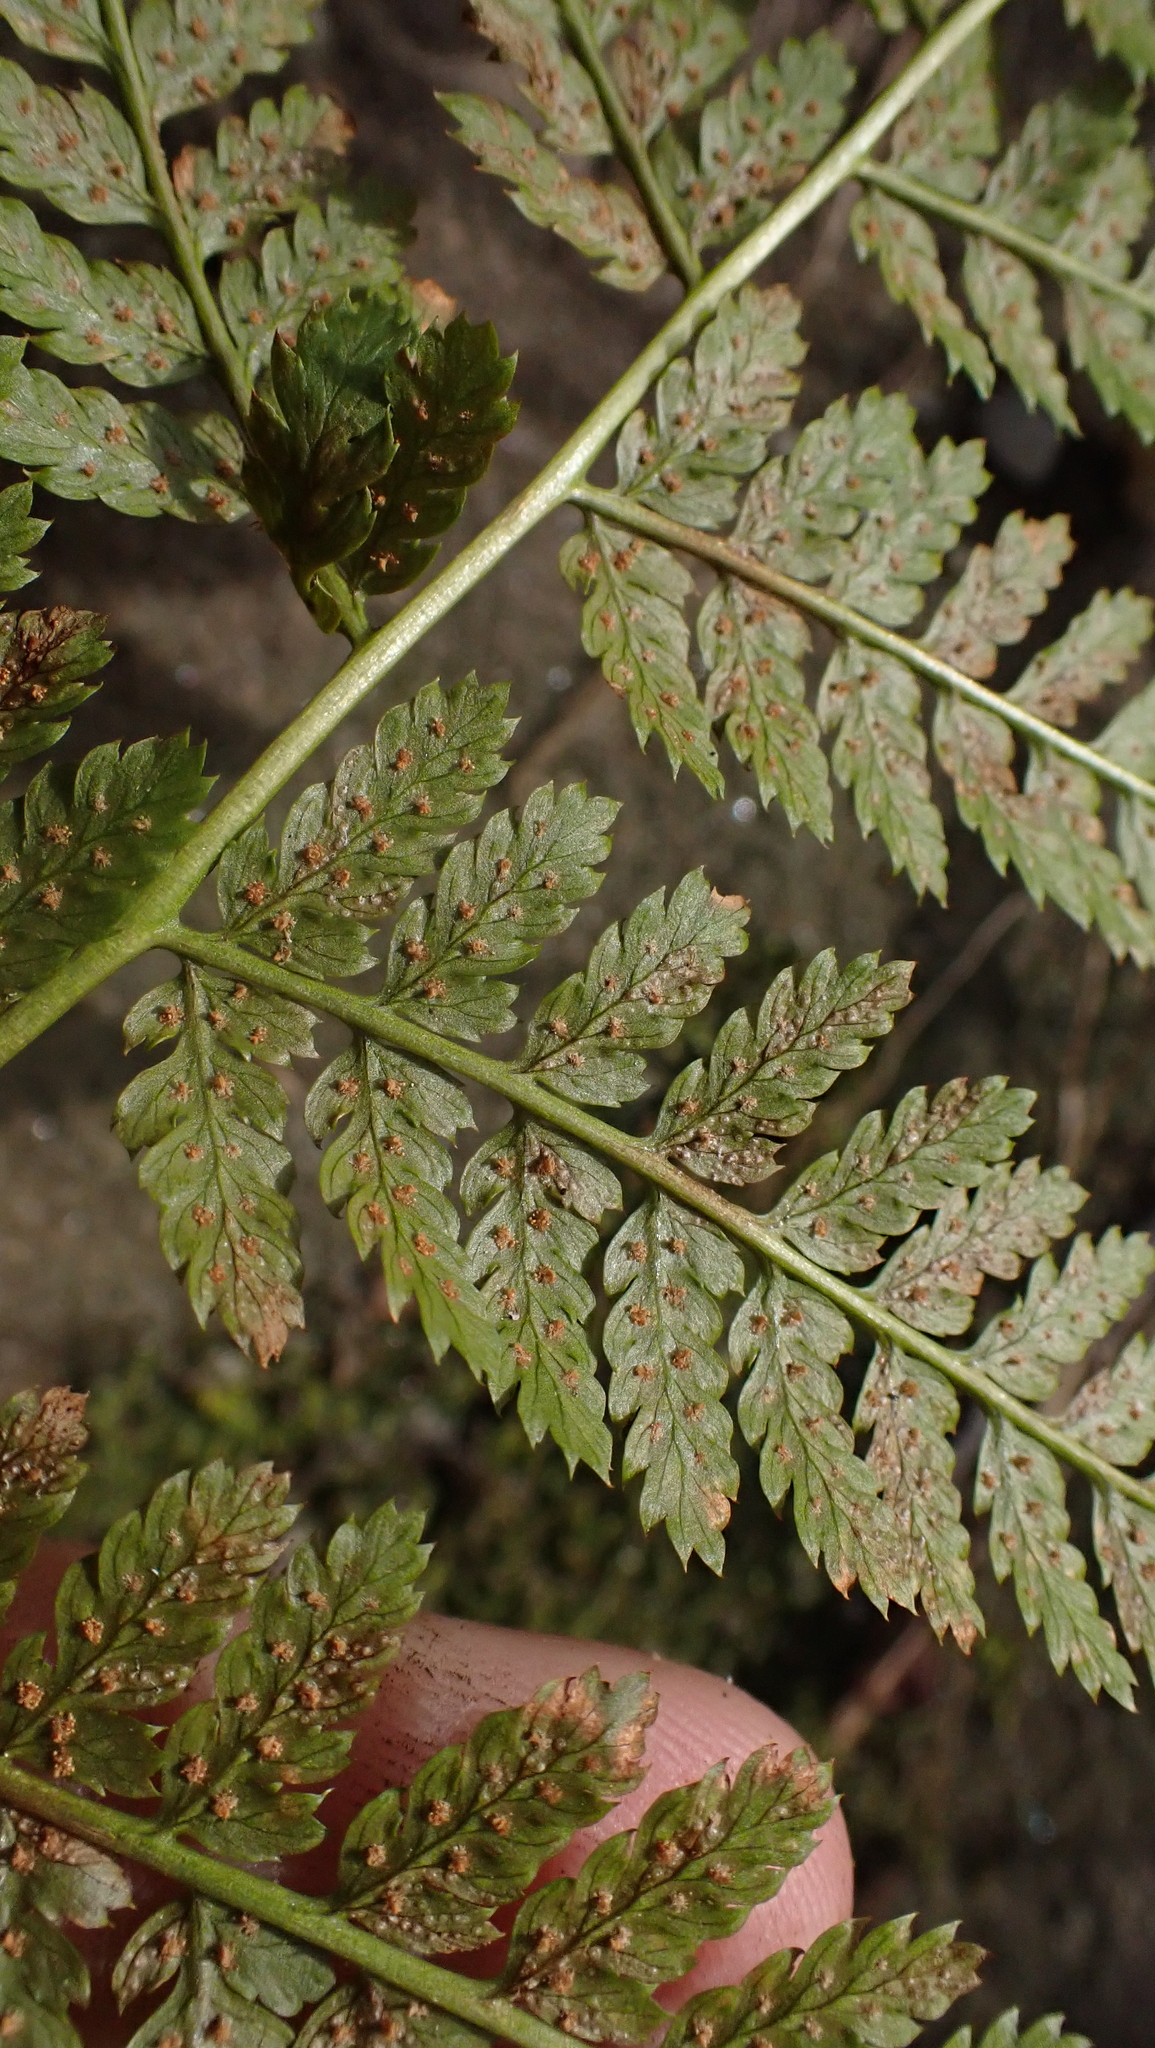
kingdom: Plantae
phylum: Tracheophyta
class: Polypodiopsida
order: Polypodiales
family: Dryopteridaceae
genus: Dryopteris
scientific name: Dryopteris intermedia
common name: Evergreen wood fern
